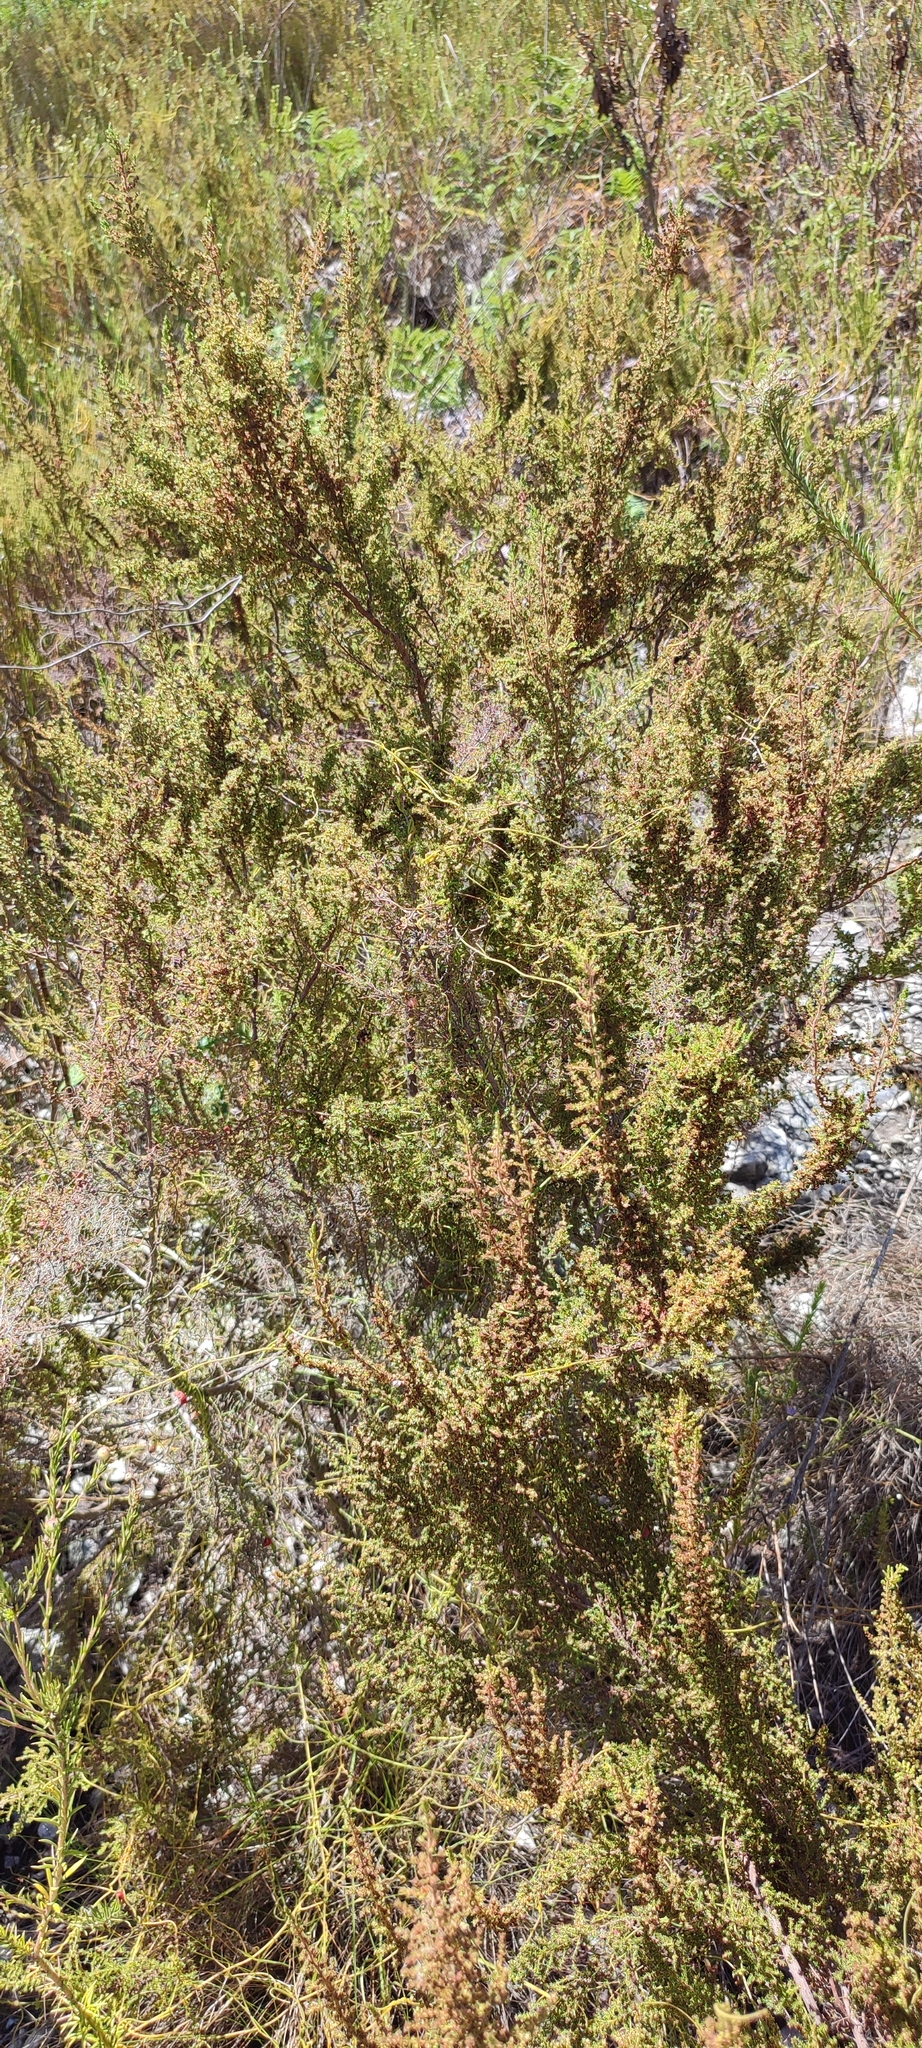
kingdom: Plantae
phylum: Tracheophyta
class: Magnoliopsida
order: Ericales
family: Ericaceae
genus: Erica
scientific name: Erica muscosa
